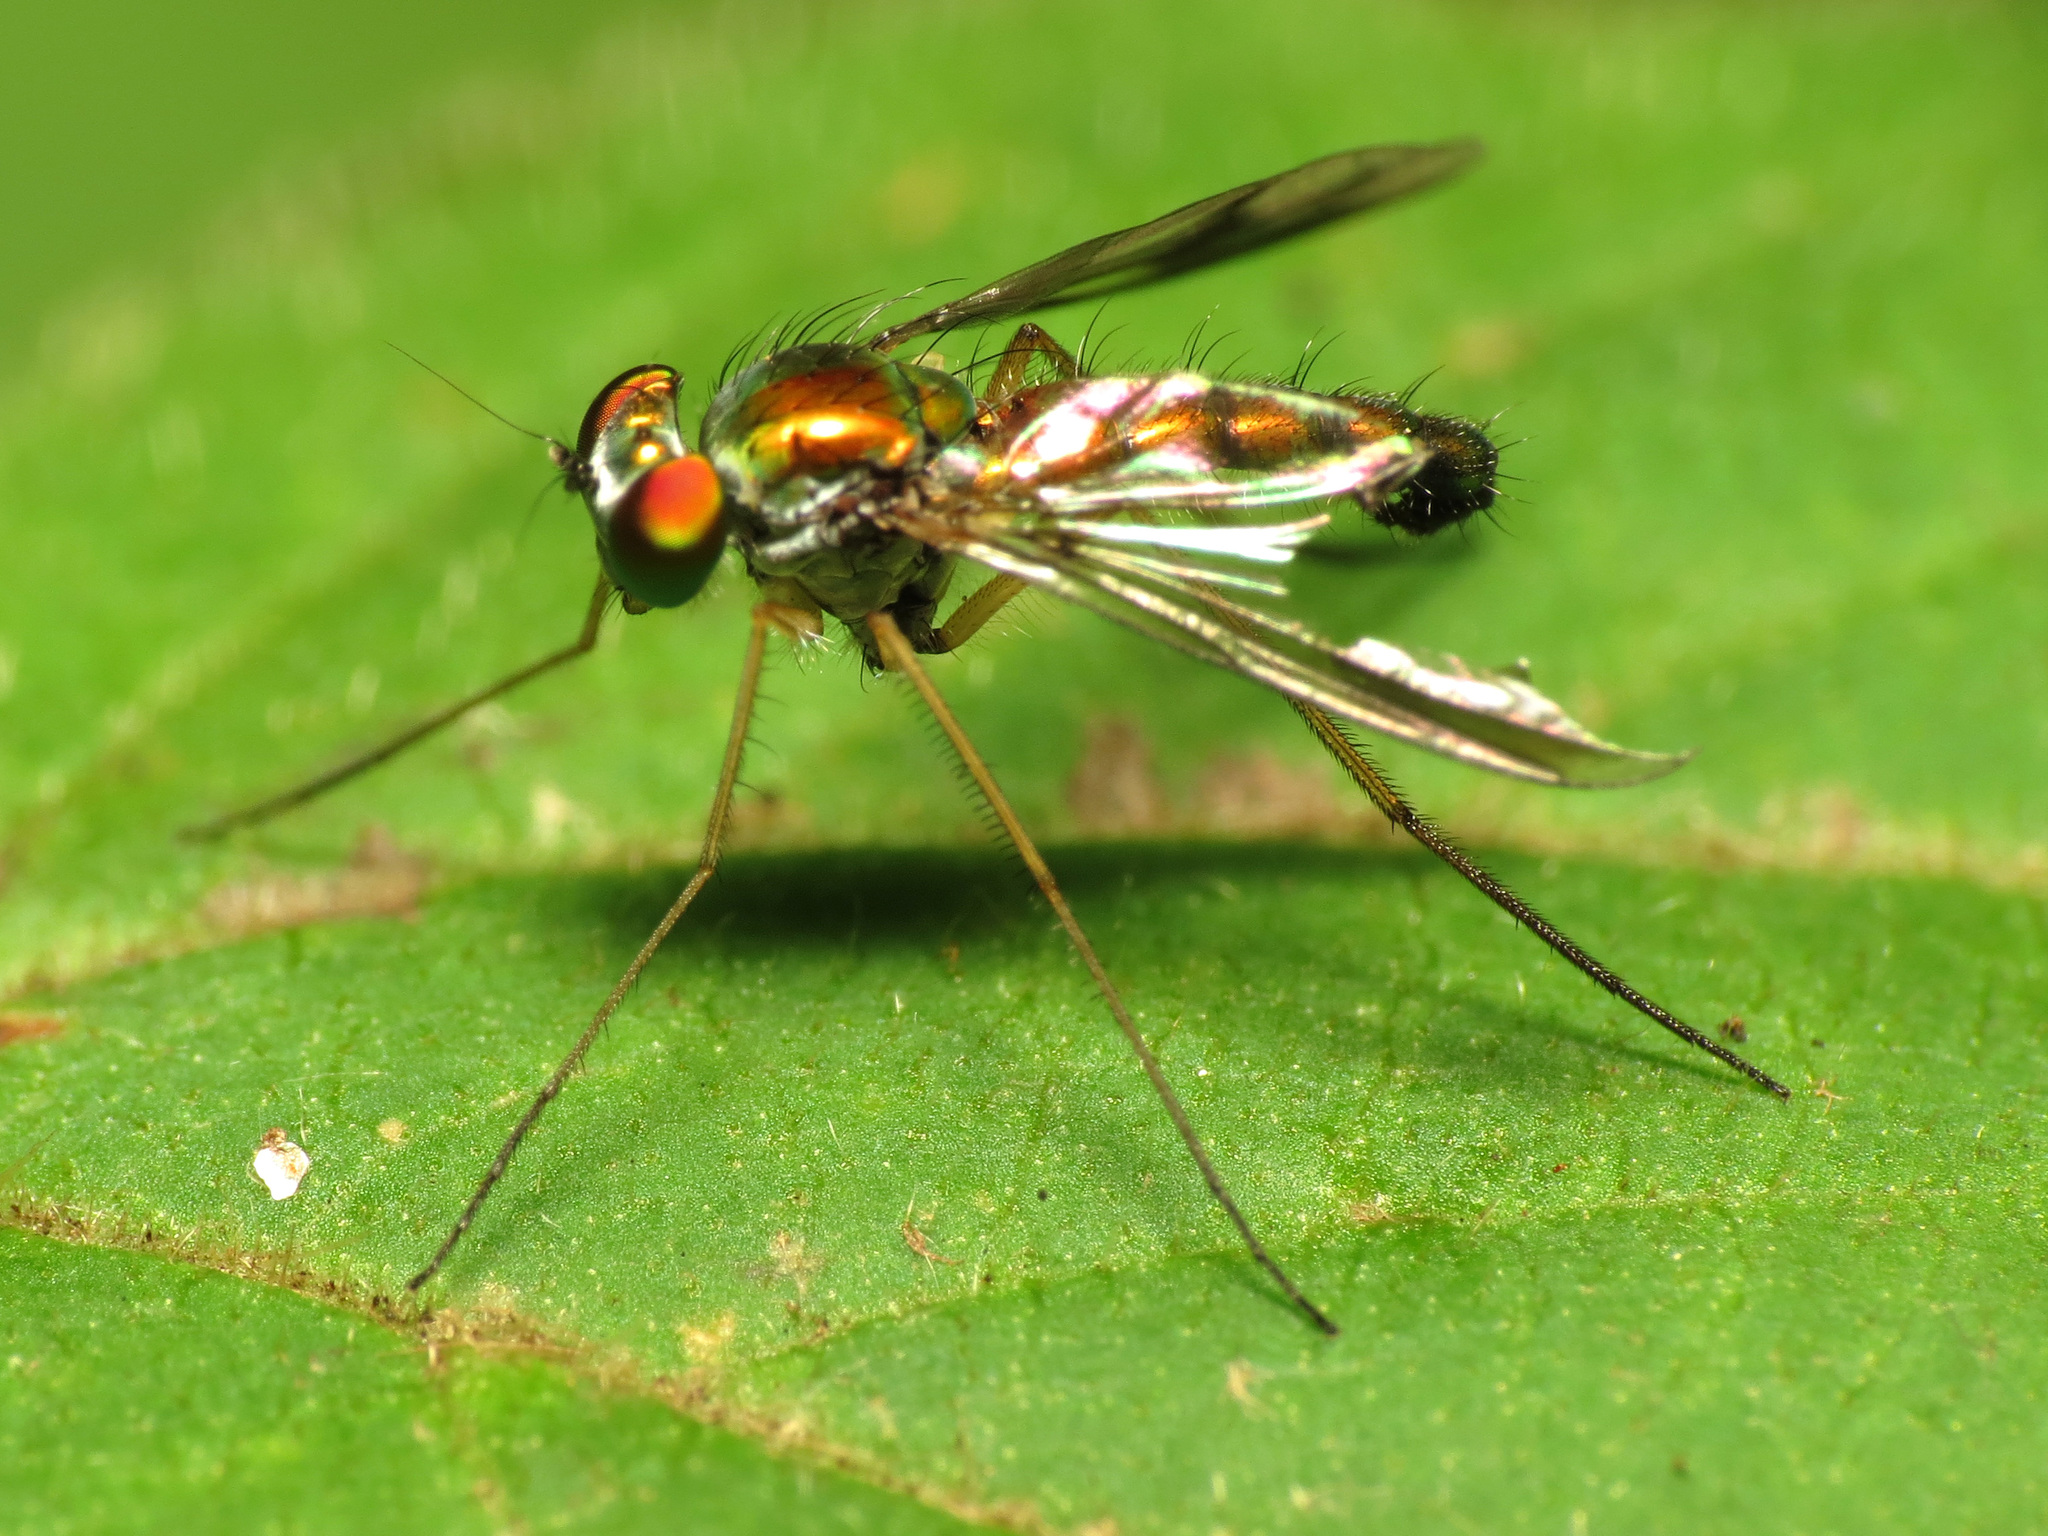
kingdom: Animalia
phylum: Arthropoda
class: Insecta
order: Diptera
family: Dolichopodidae
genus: Condylostylus
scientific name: Condylostylus
